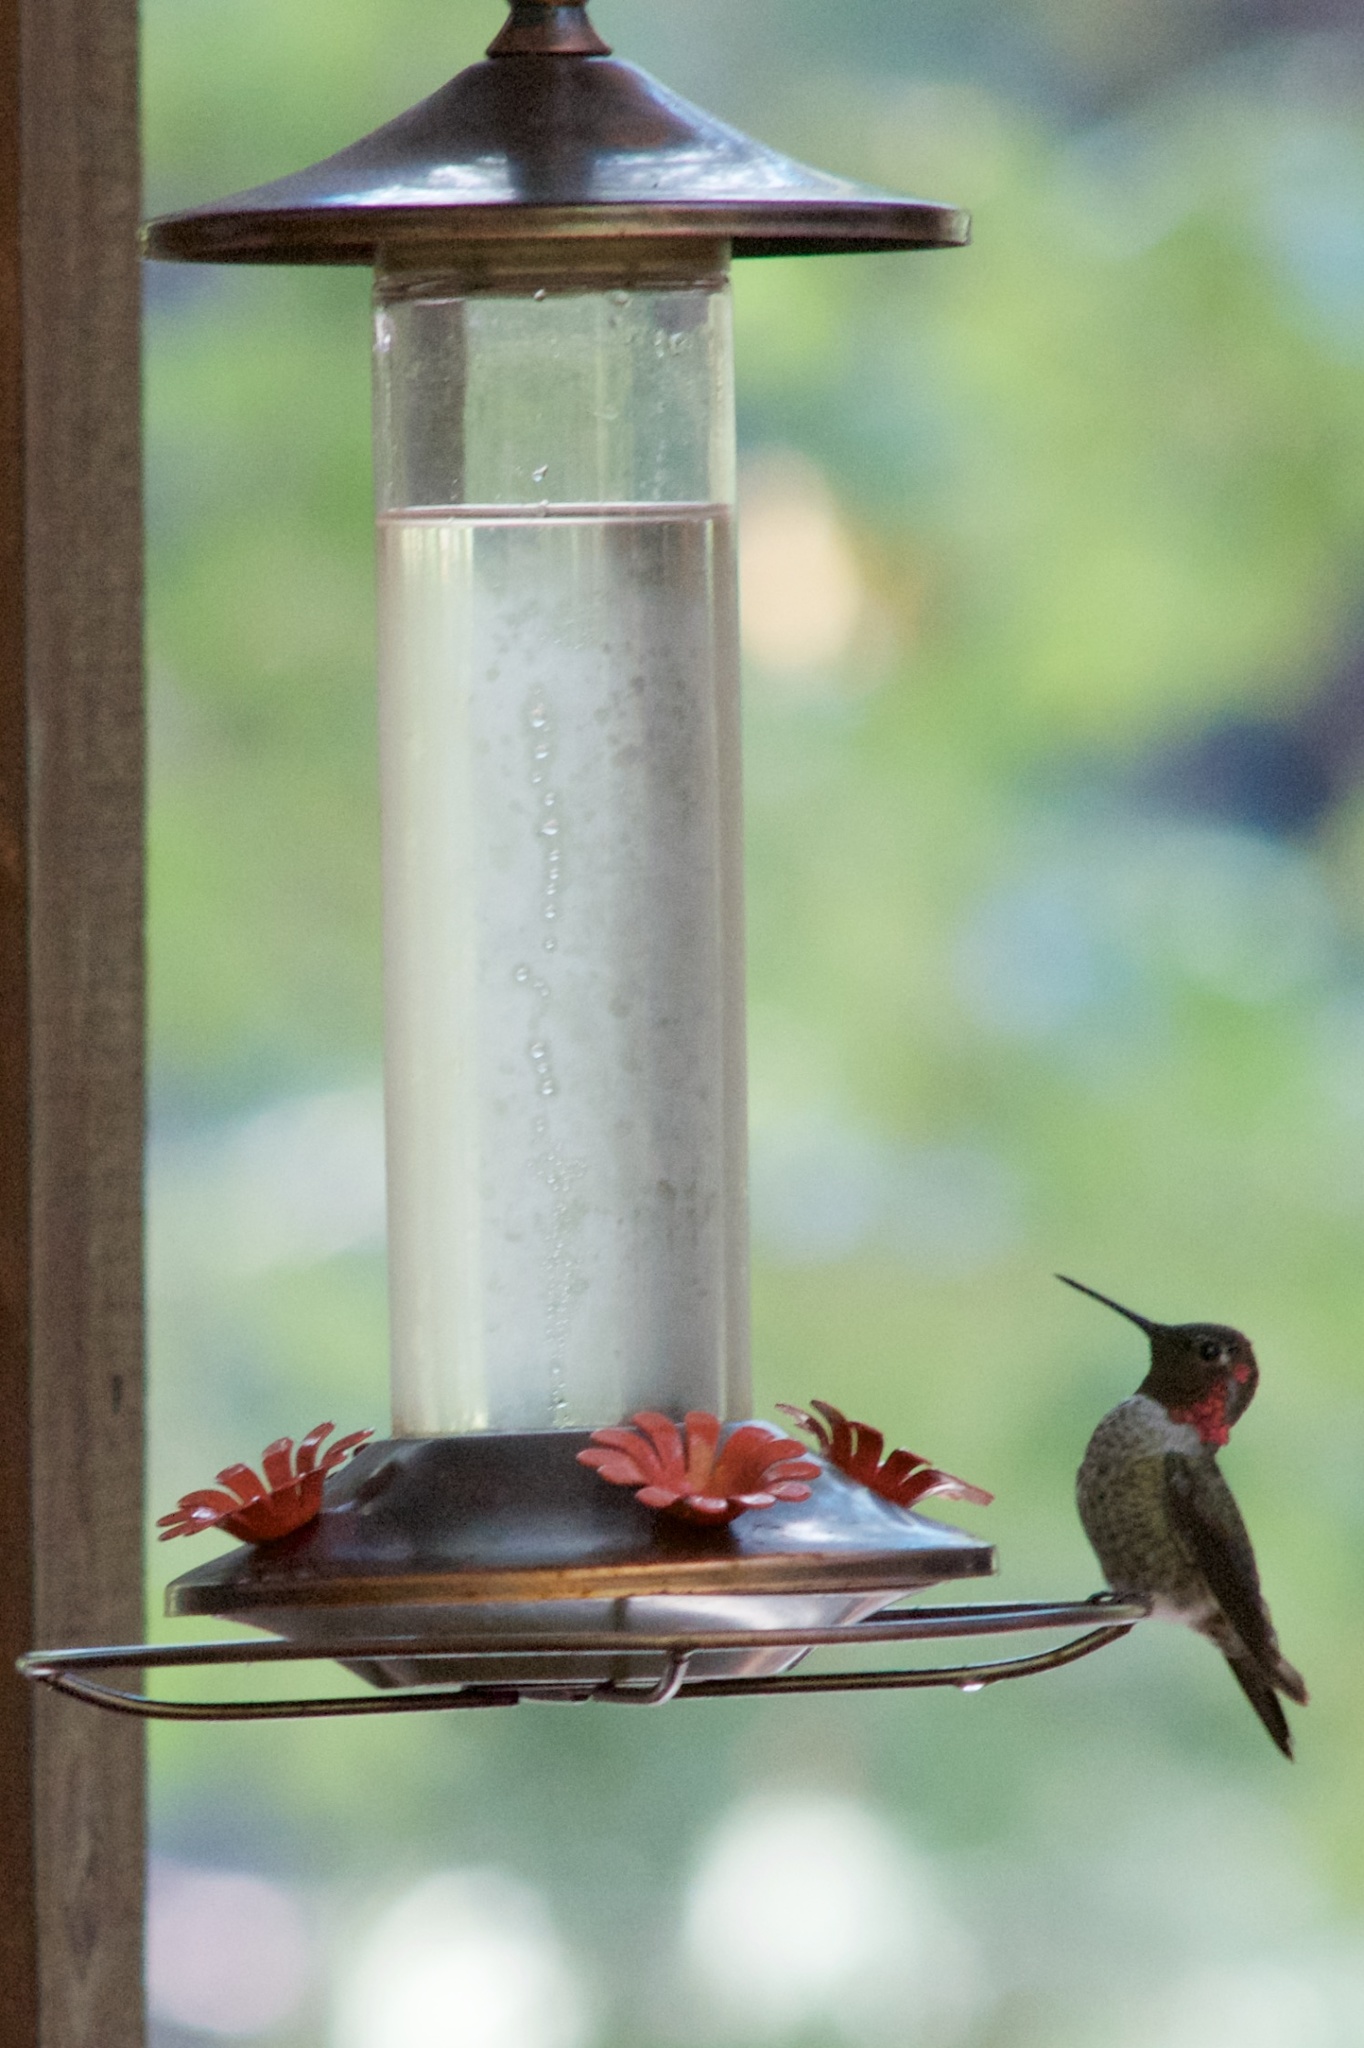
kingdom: Animalia
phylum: Chordata
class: Aves
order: Apodiformes
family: Trochilidae
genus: Calypte
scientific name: Calypte anna
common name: Anna's hummingbird
